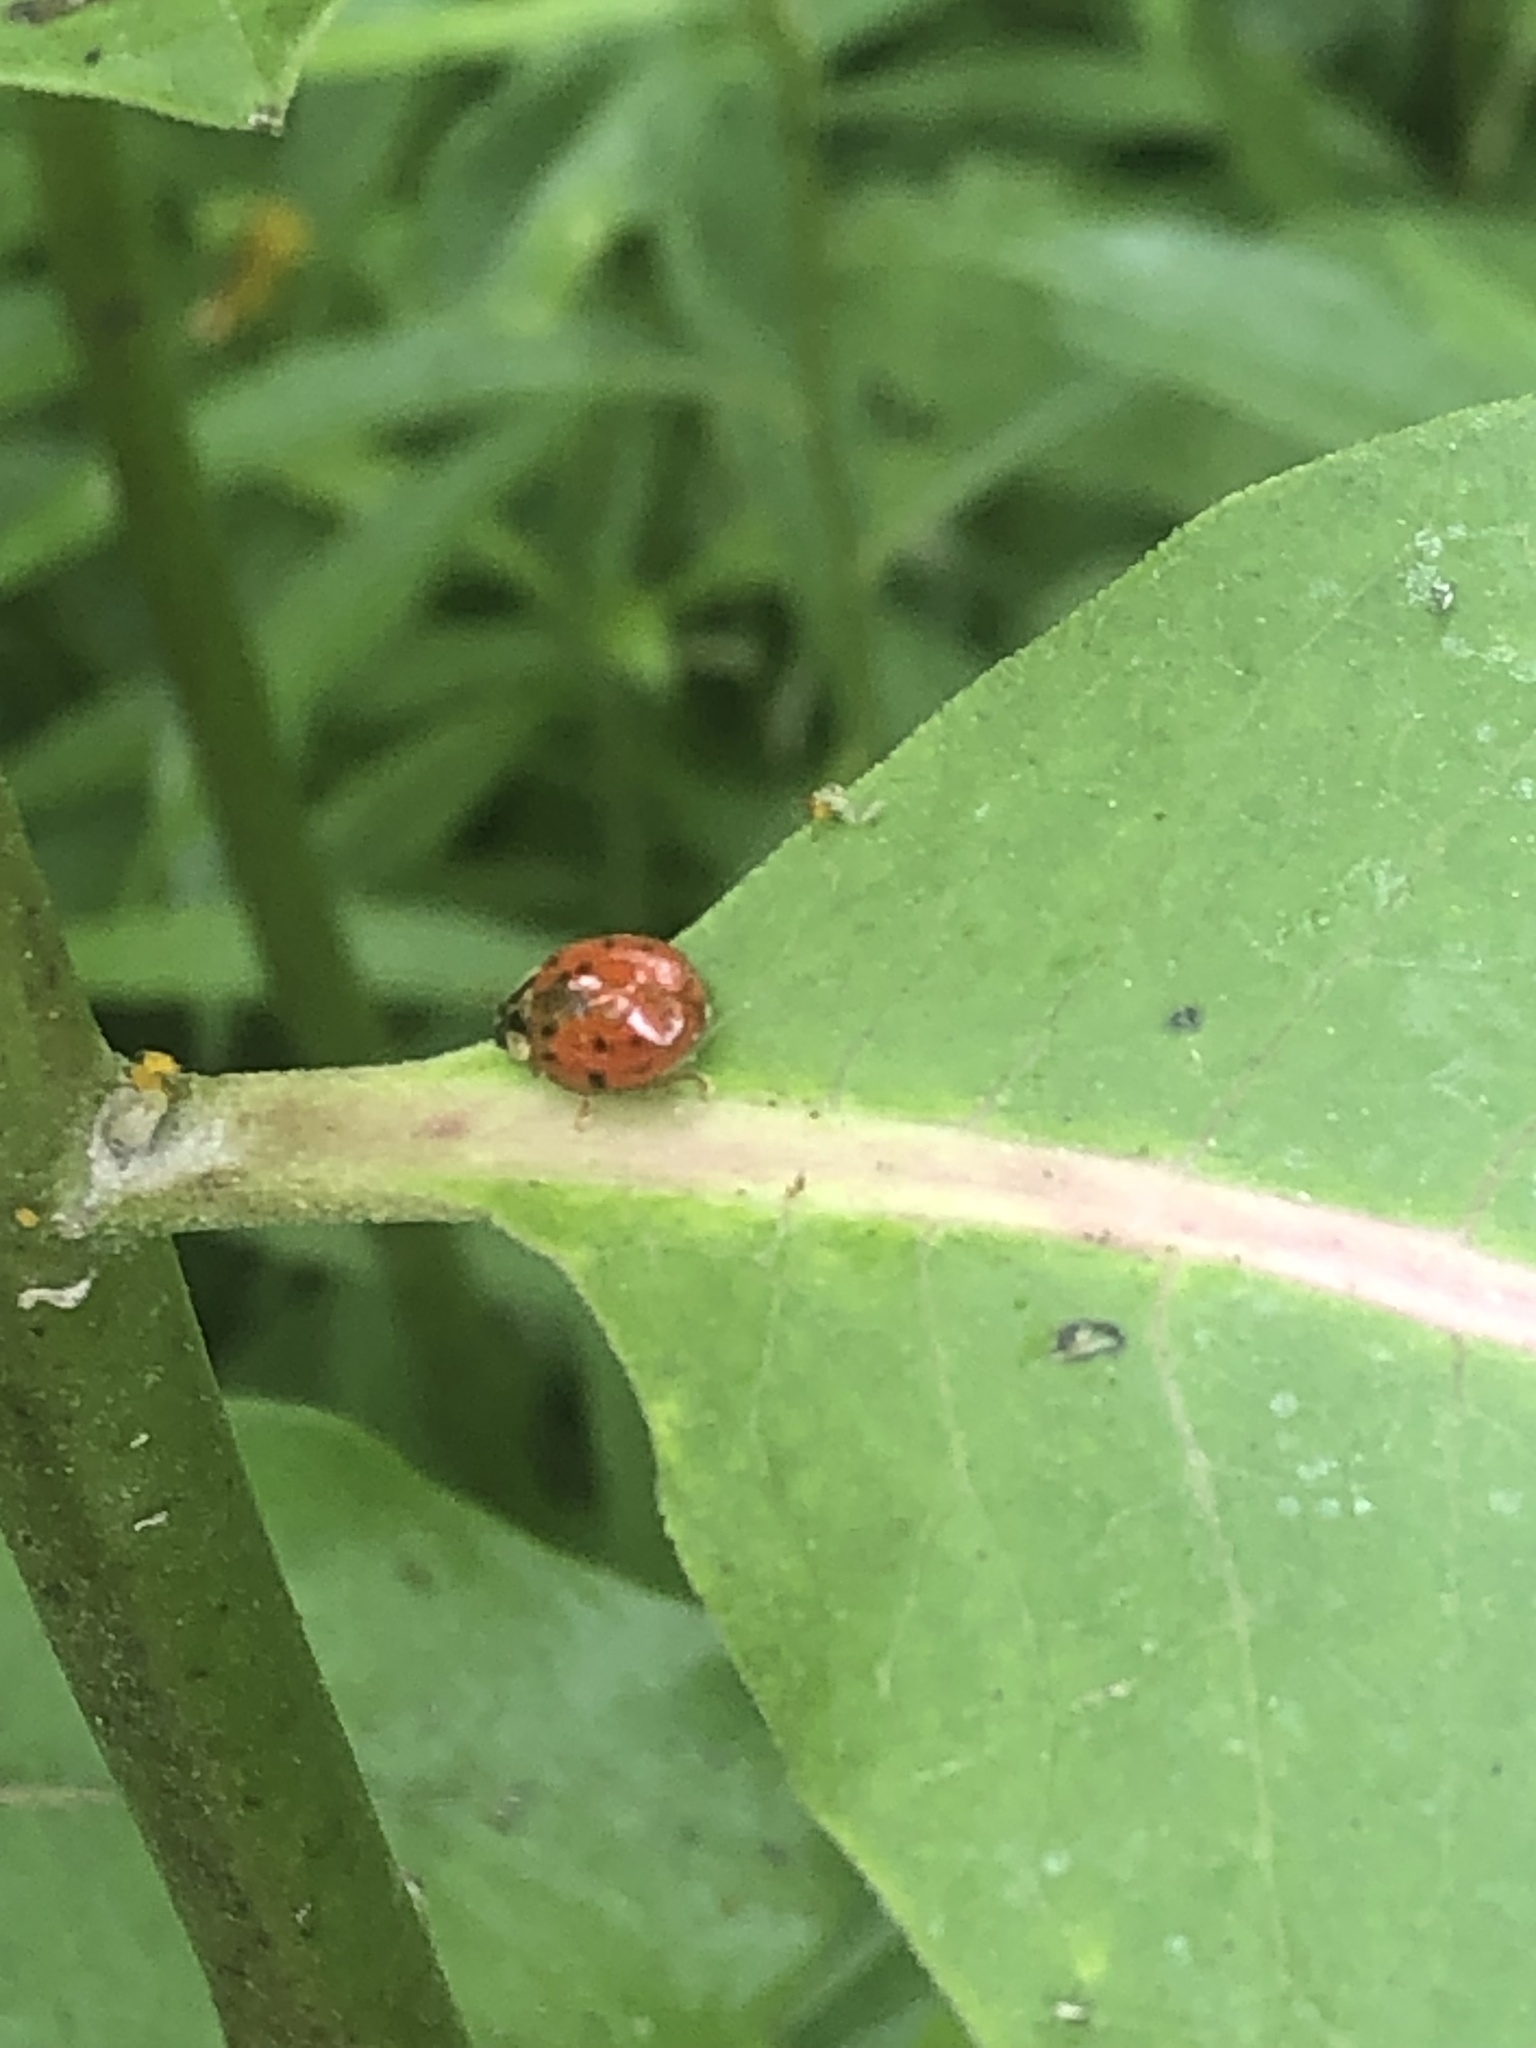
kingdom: Animalia
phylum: Arthropoda
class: Insecta
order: Coleoptera
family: Coccinellidae
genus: Harmonia
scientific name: Harmonia axyridis
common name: Harlequin ladybird
